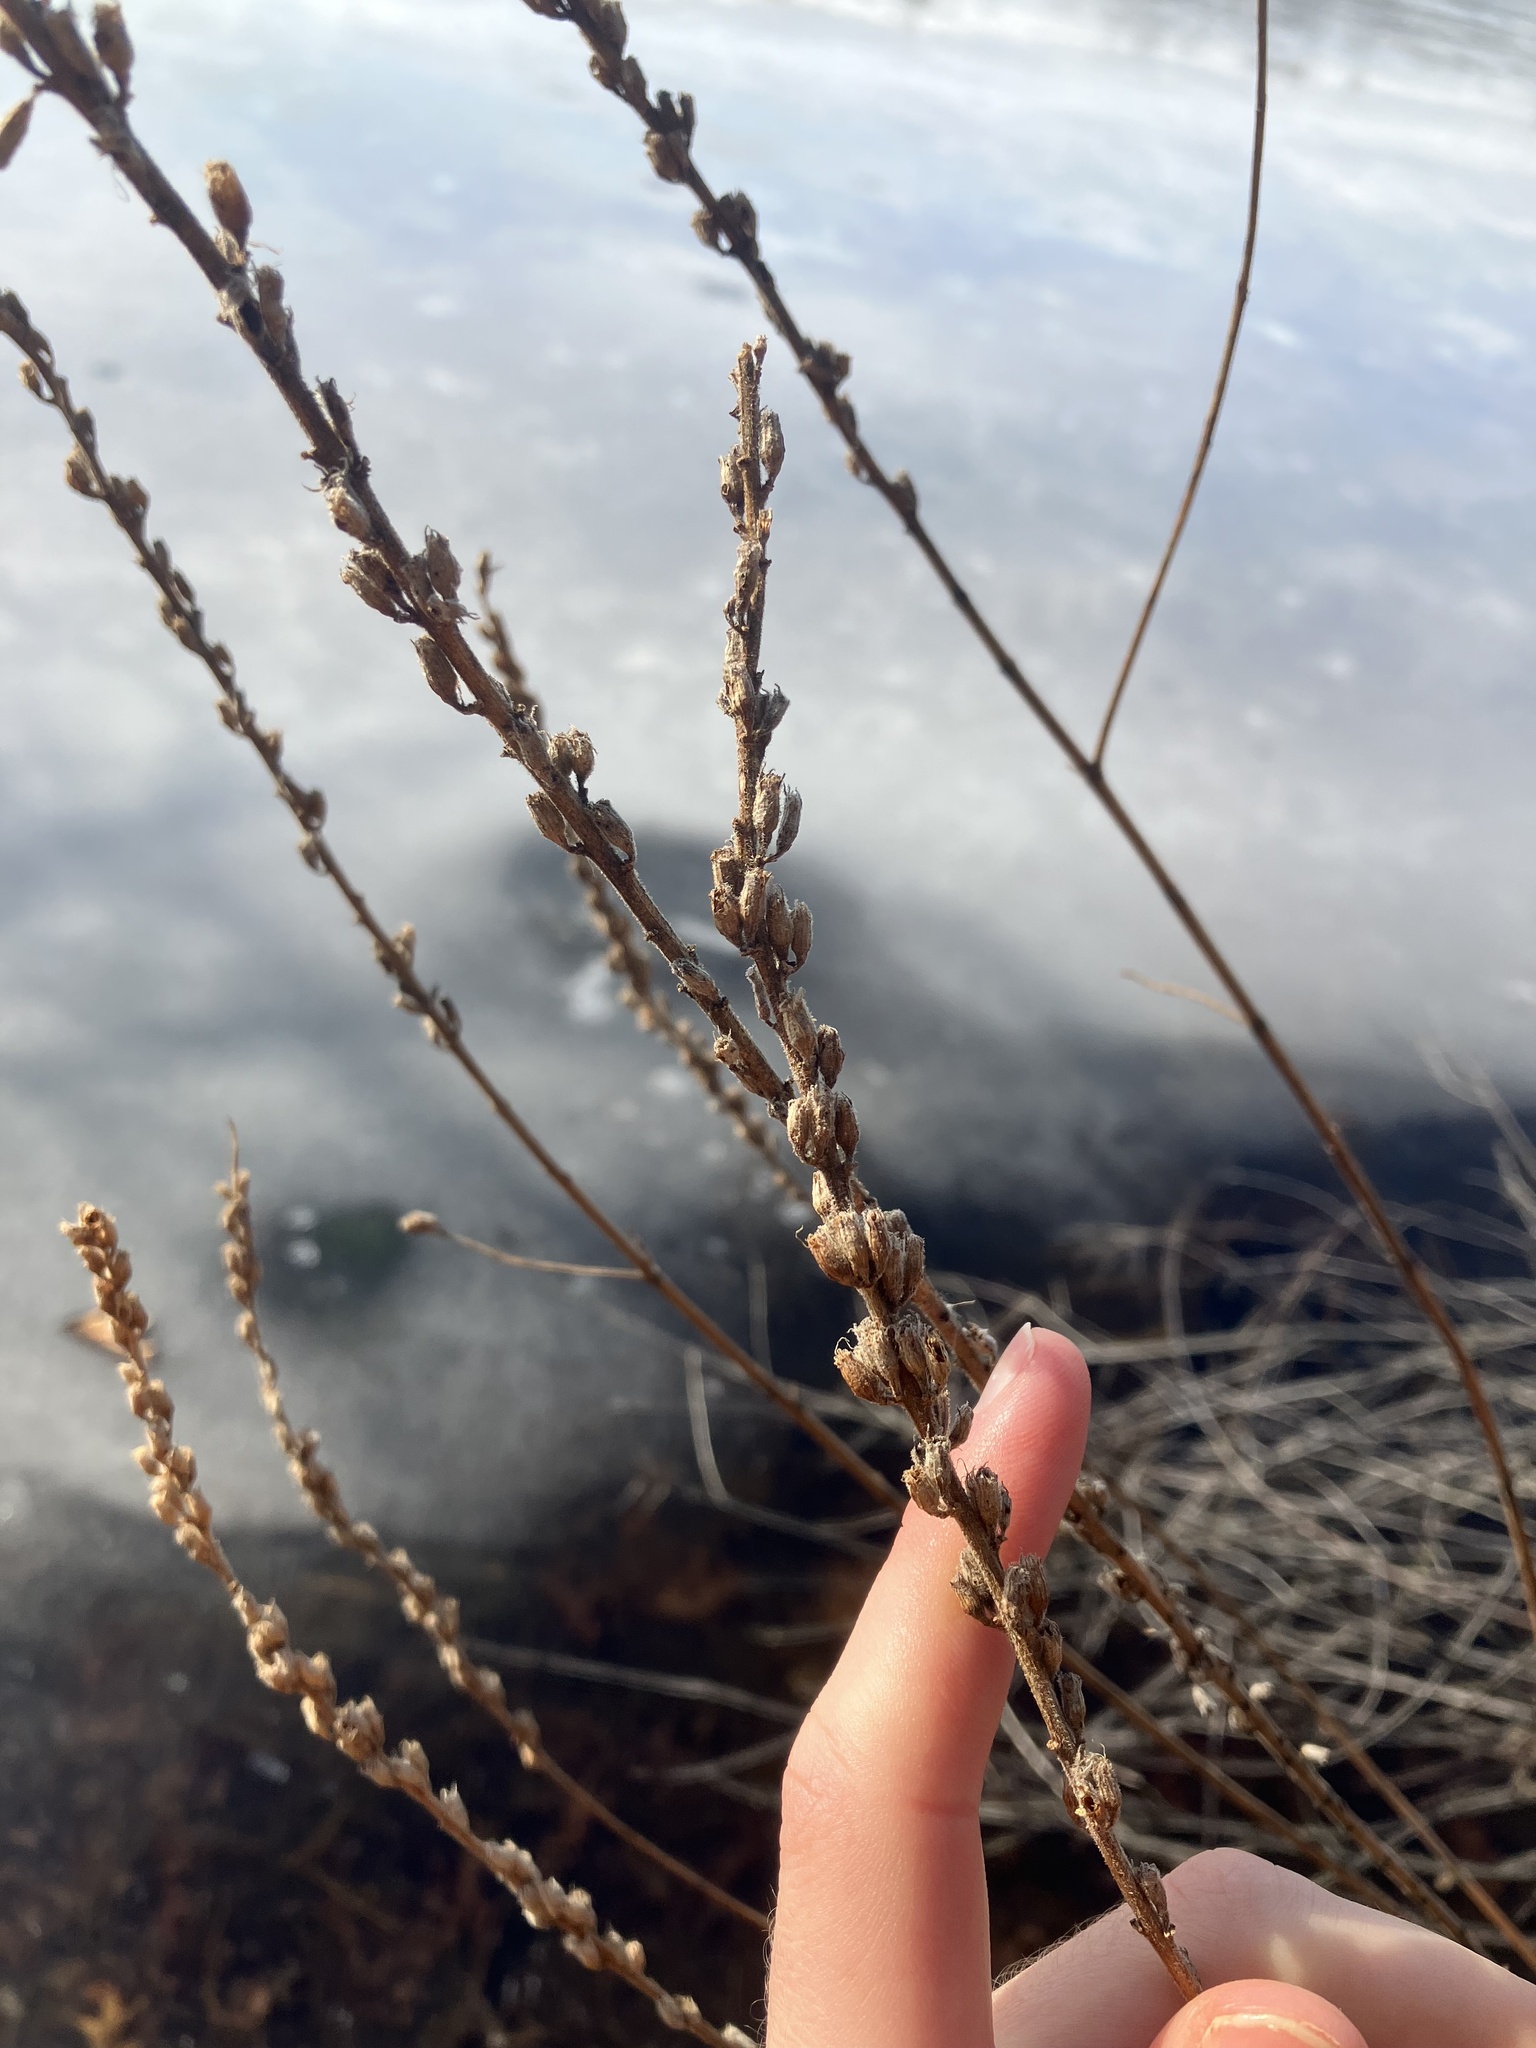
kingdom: Plantae
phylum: Tracheophyta
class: Magnoliopsida
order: Myrtales
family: Lythraceae
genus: Lythrum
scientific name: Lythrum salicaria
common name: Purple loosestrife
